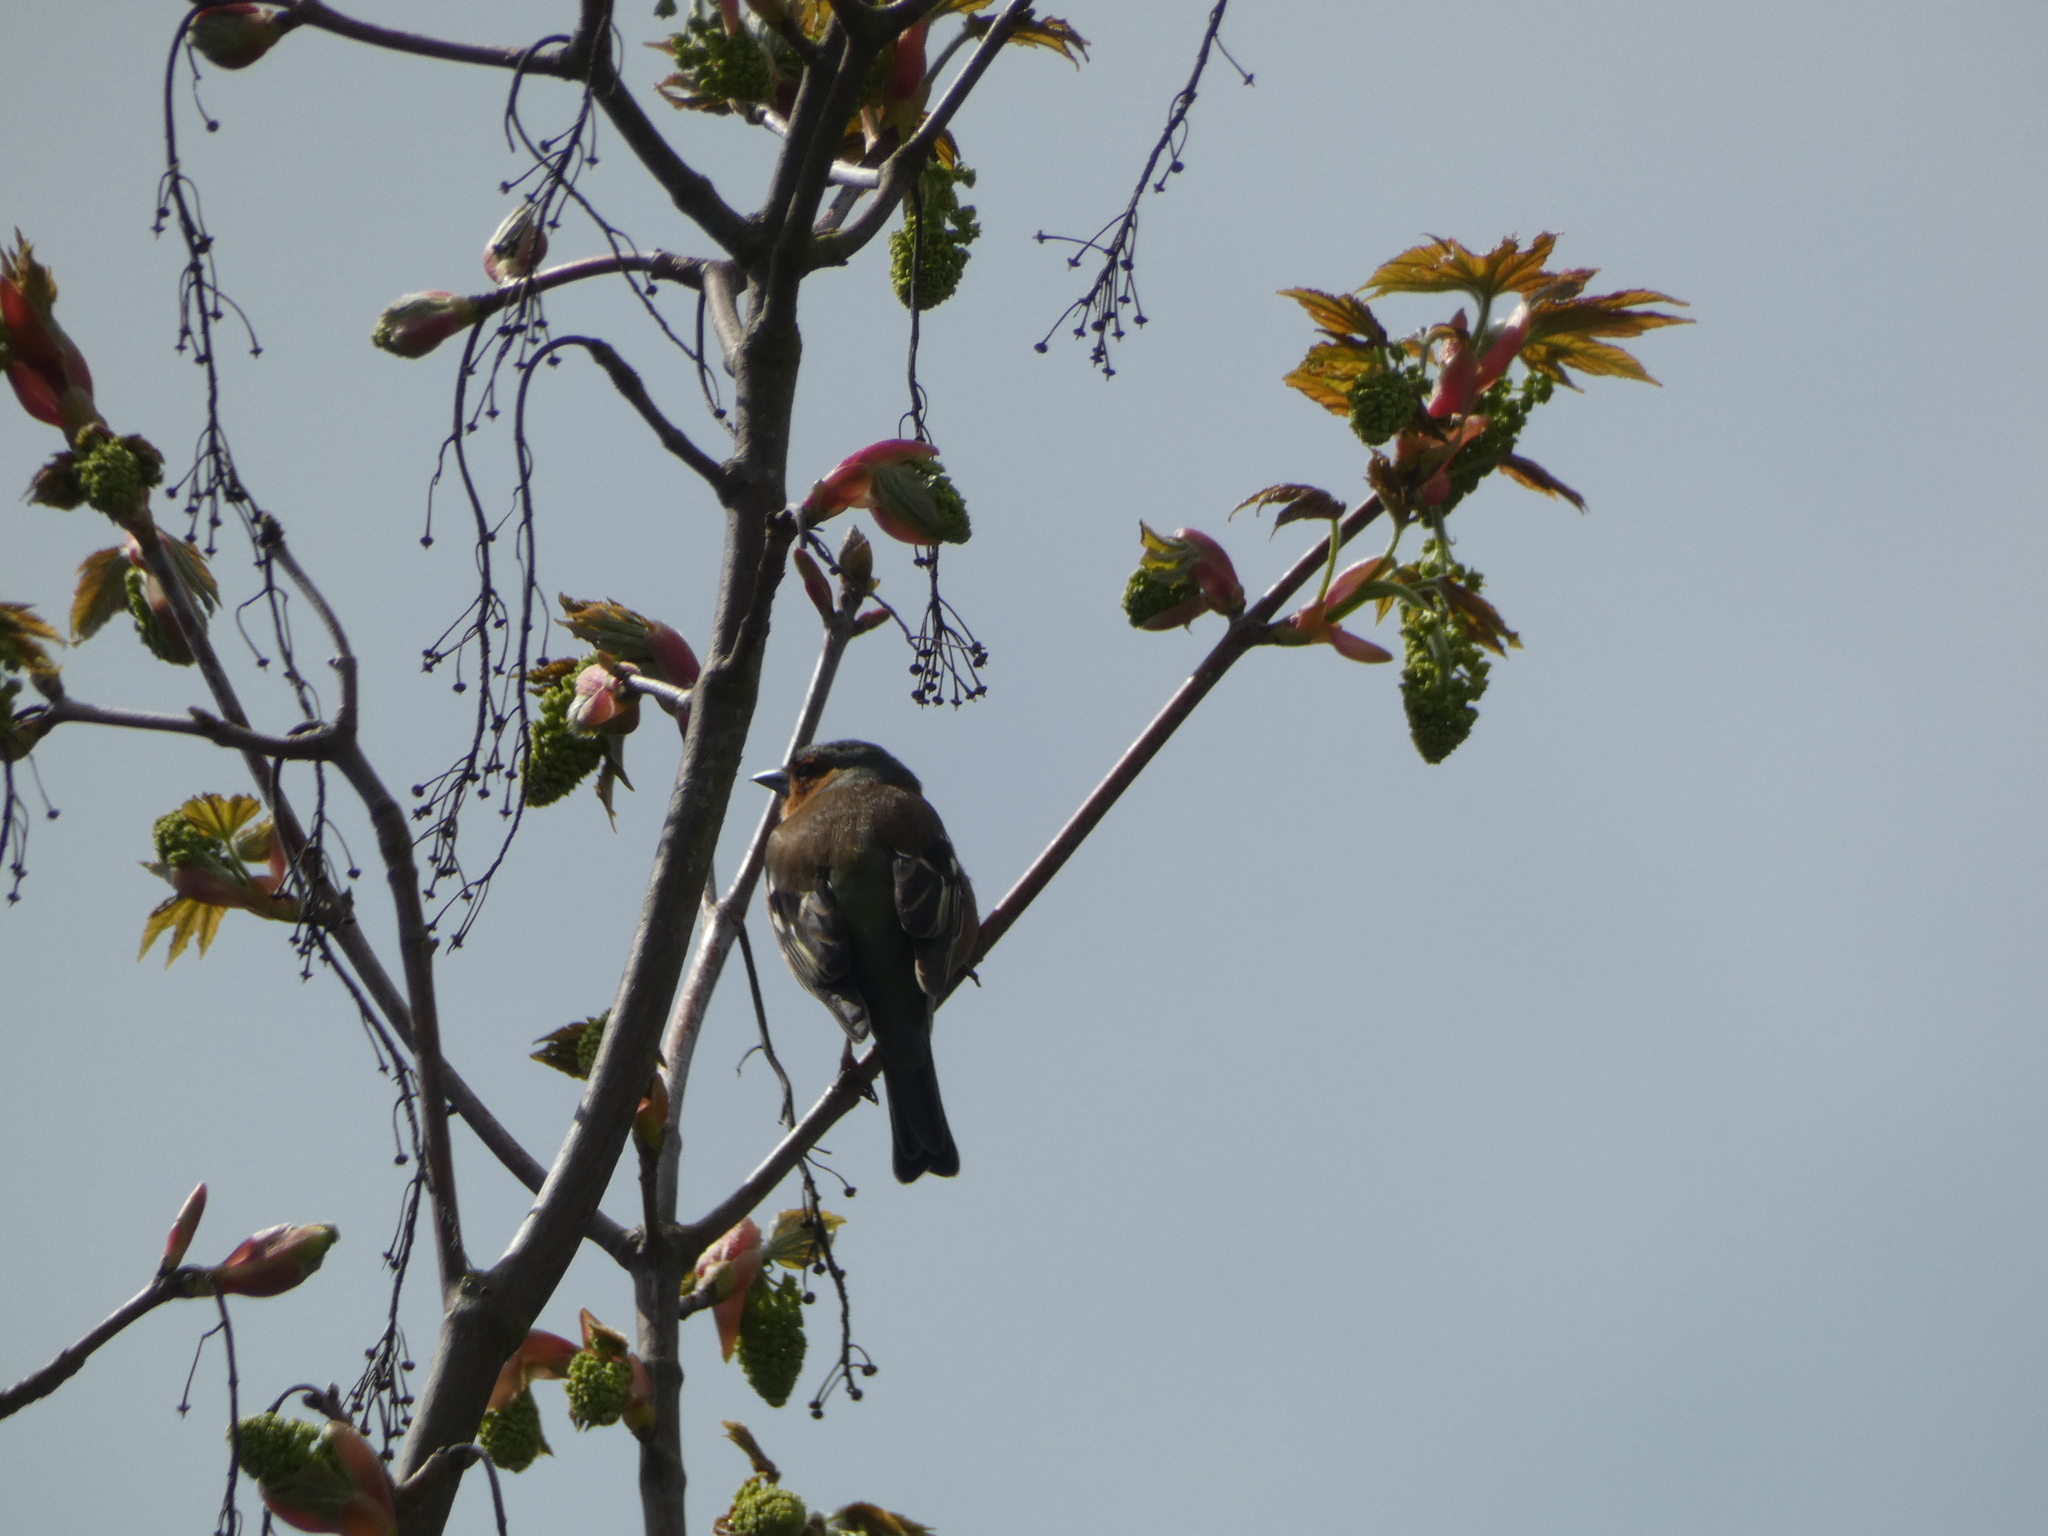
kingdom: Animalia
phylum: Chordata
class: Aves
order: Passeriformes
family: Fringillidae
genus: Fringilla
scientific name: Fringilla coelebs
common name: Common chaffinch
